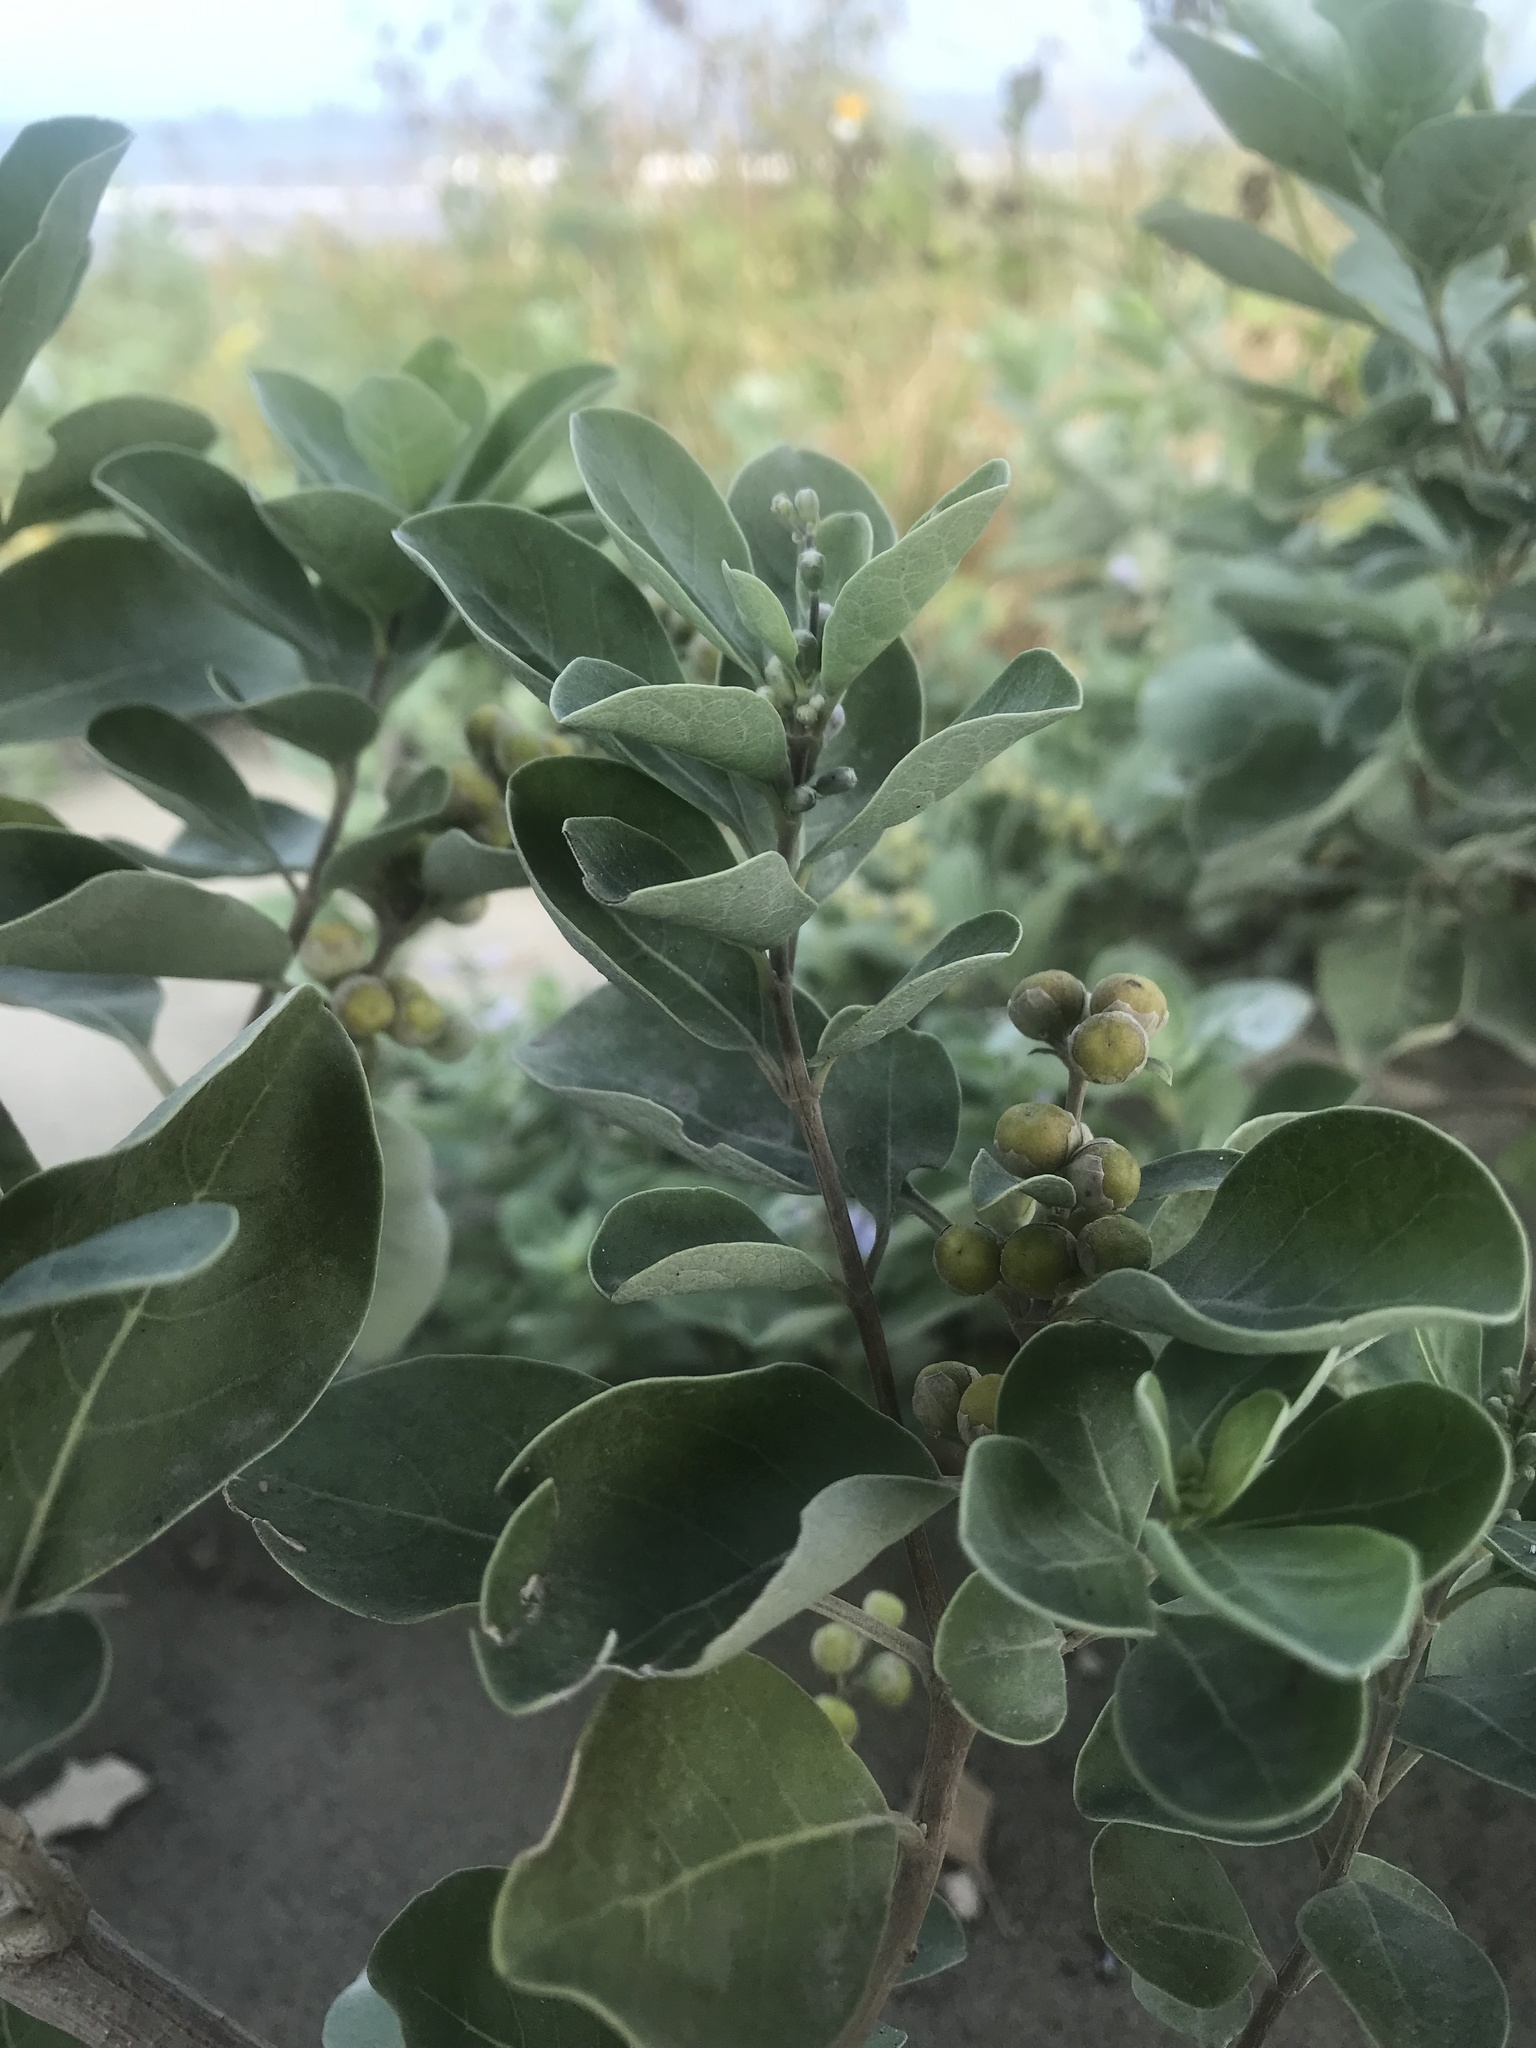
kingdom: Plantae
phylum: Tracheophyta
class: Magnoliopsida
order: Lamiales
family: Lamiaceae
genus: Vitex
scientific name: Vitex rotundifolia
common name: Beach vitex
